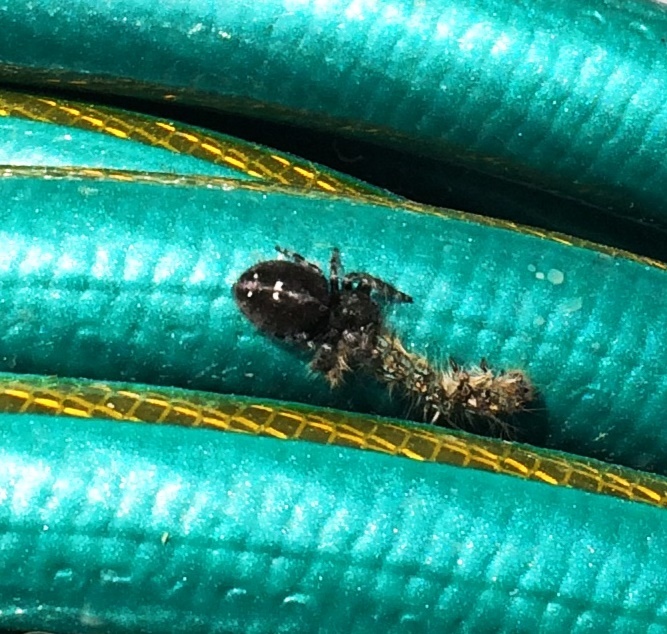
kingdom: Animalia
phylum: Arthropoda
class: Arachnida
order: Araneae
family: Salticidae
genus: Phidippus
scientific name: Phidippus audax
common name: Bold jumper
